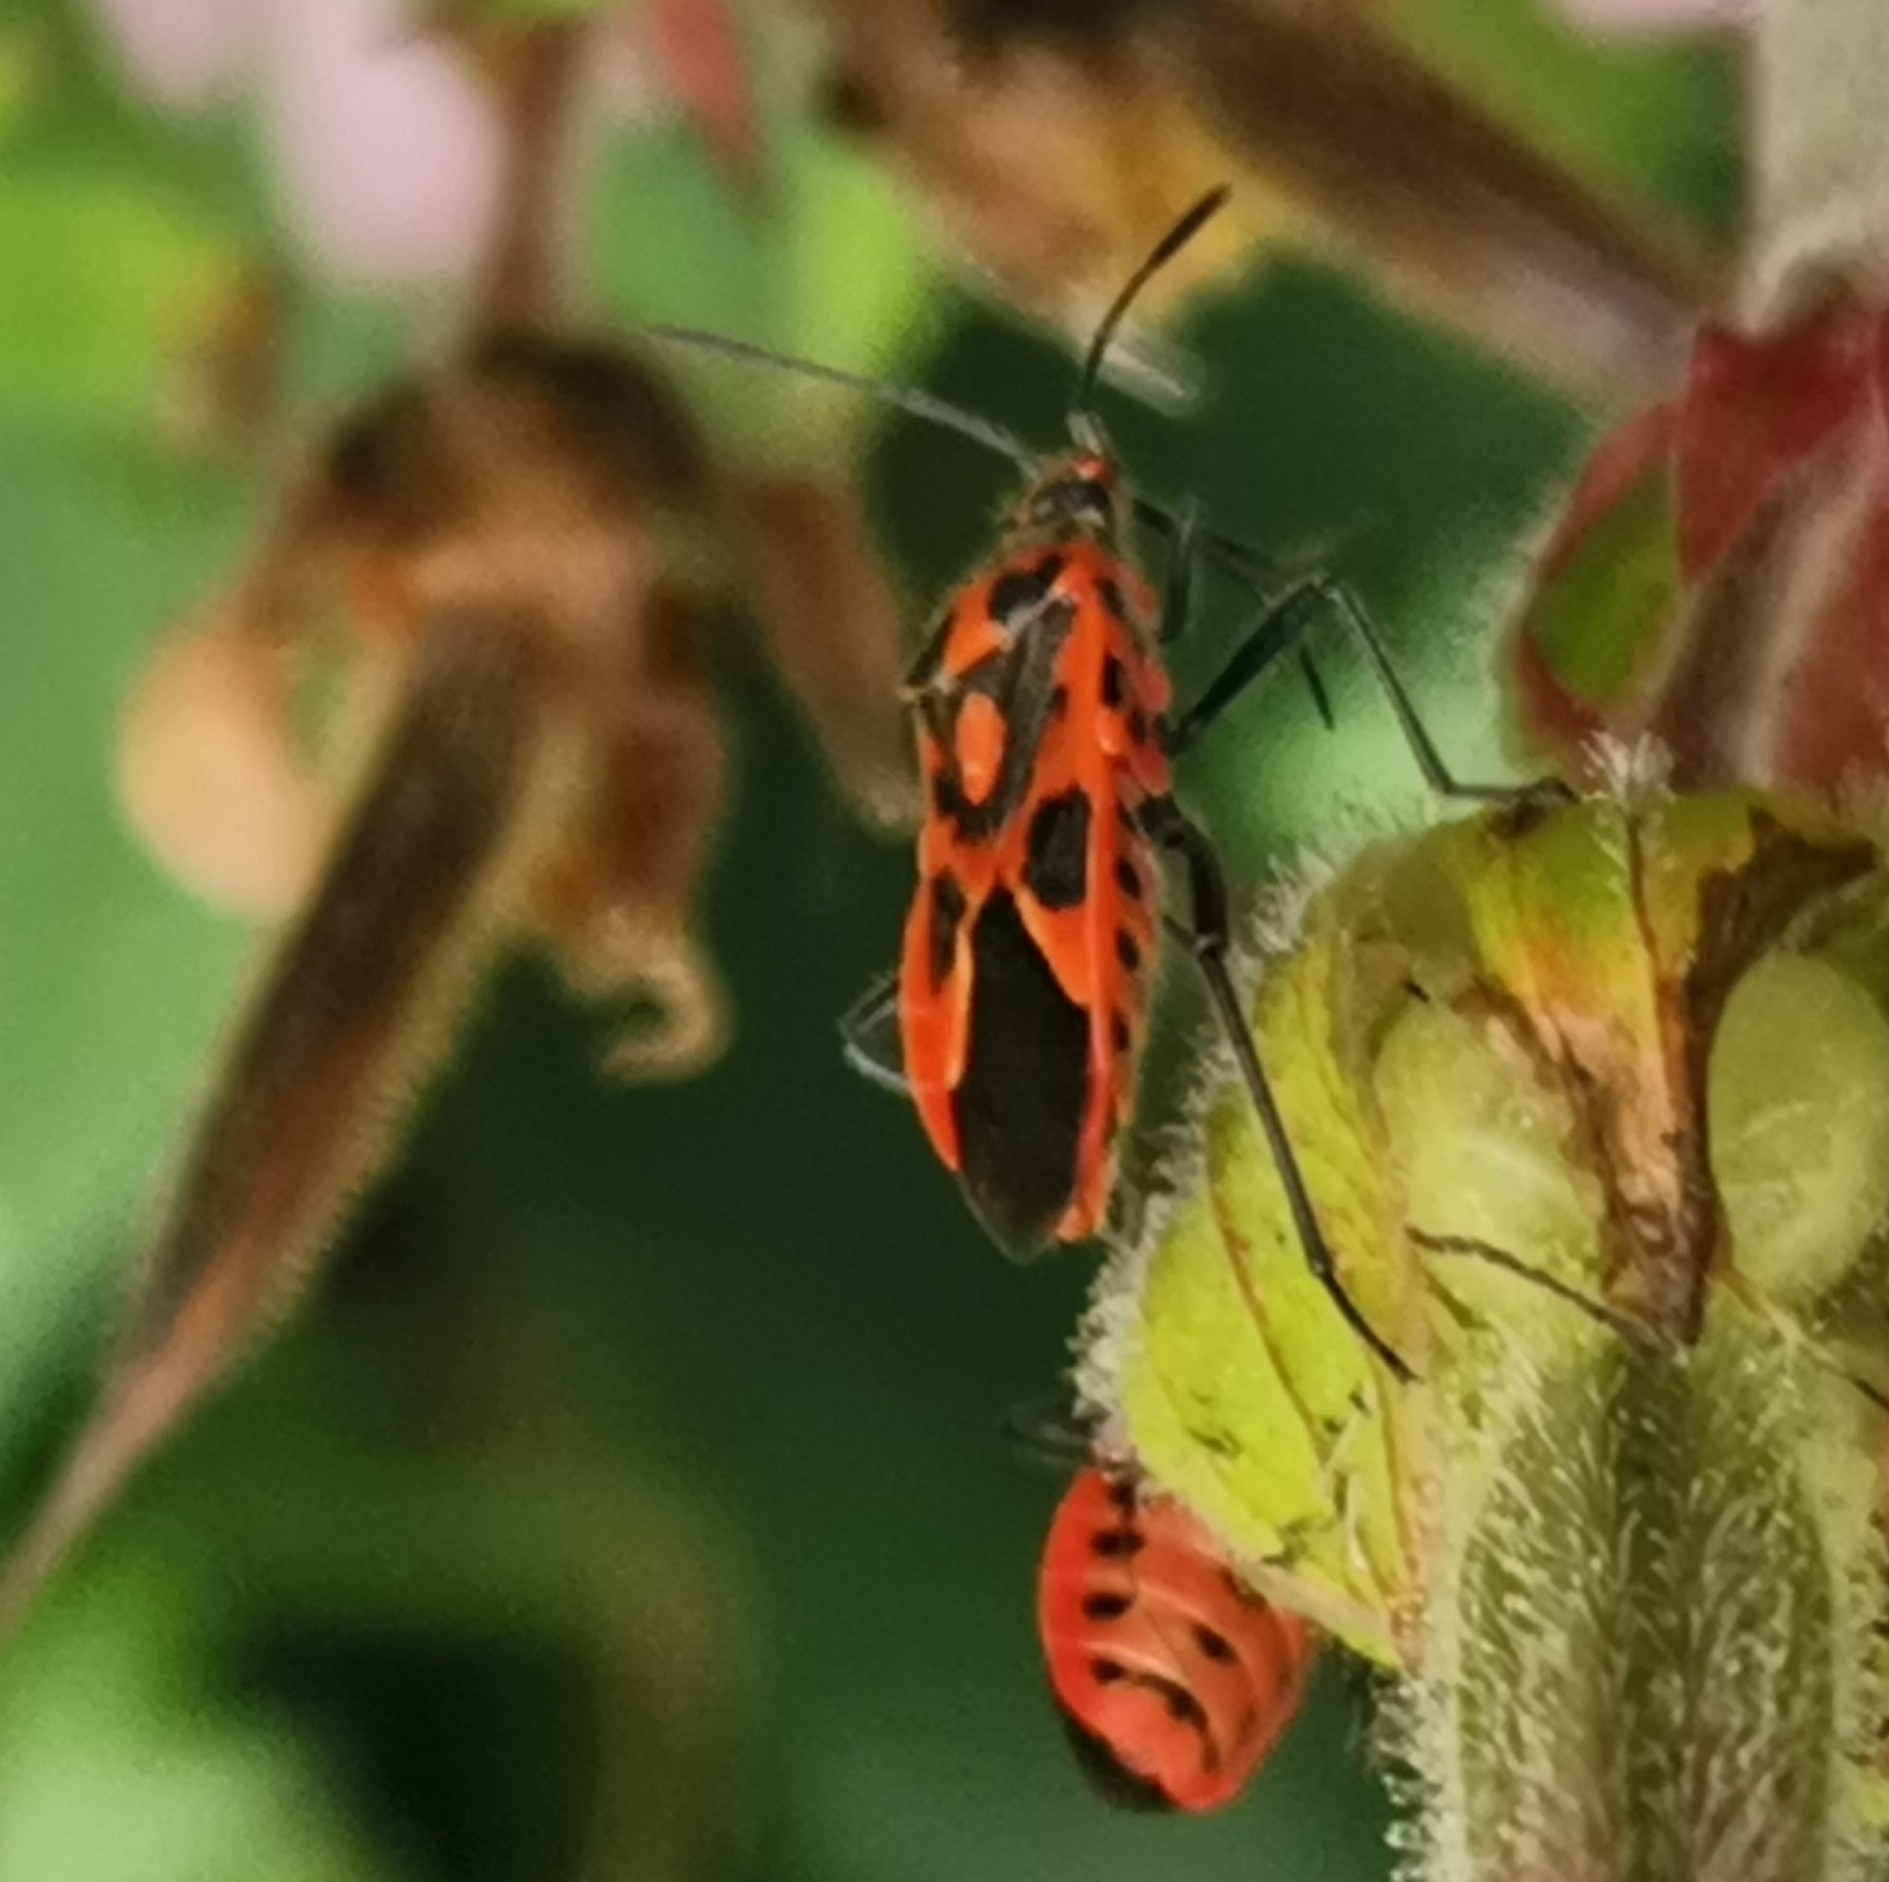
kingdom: Animalia
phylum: Arthropoda
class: Insecta
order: Hemiptera
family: Rhopalidae
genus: Corizus
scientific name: Corizus hyoscyami
